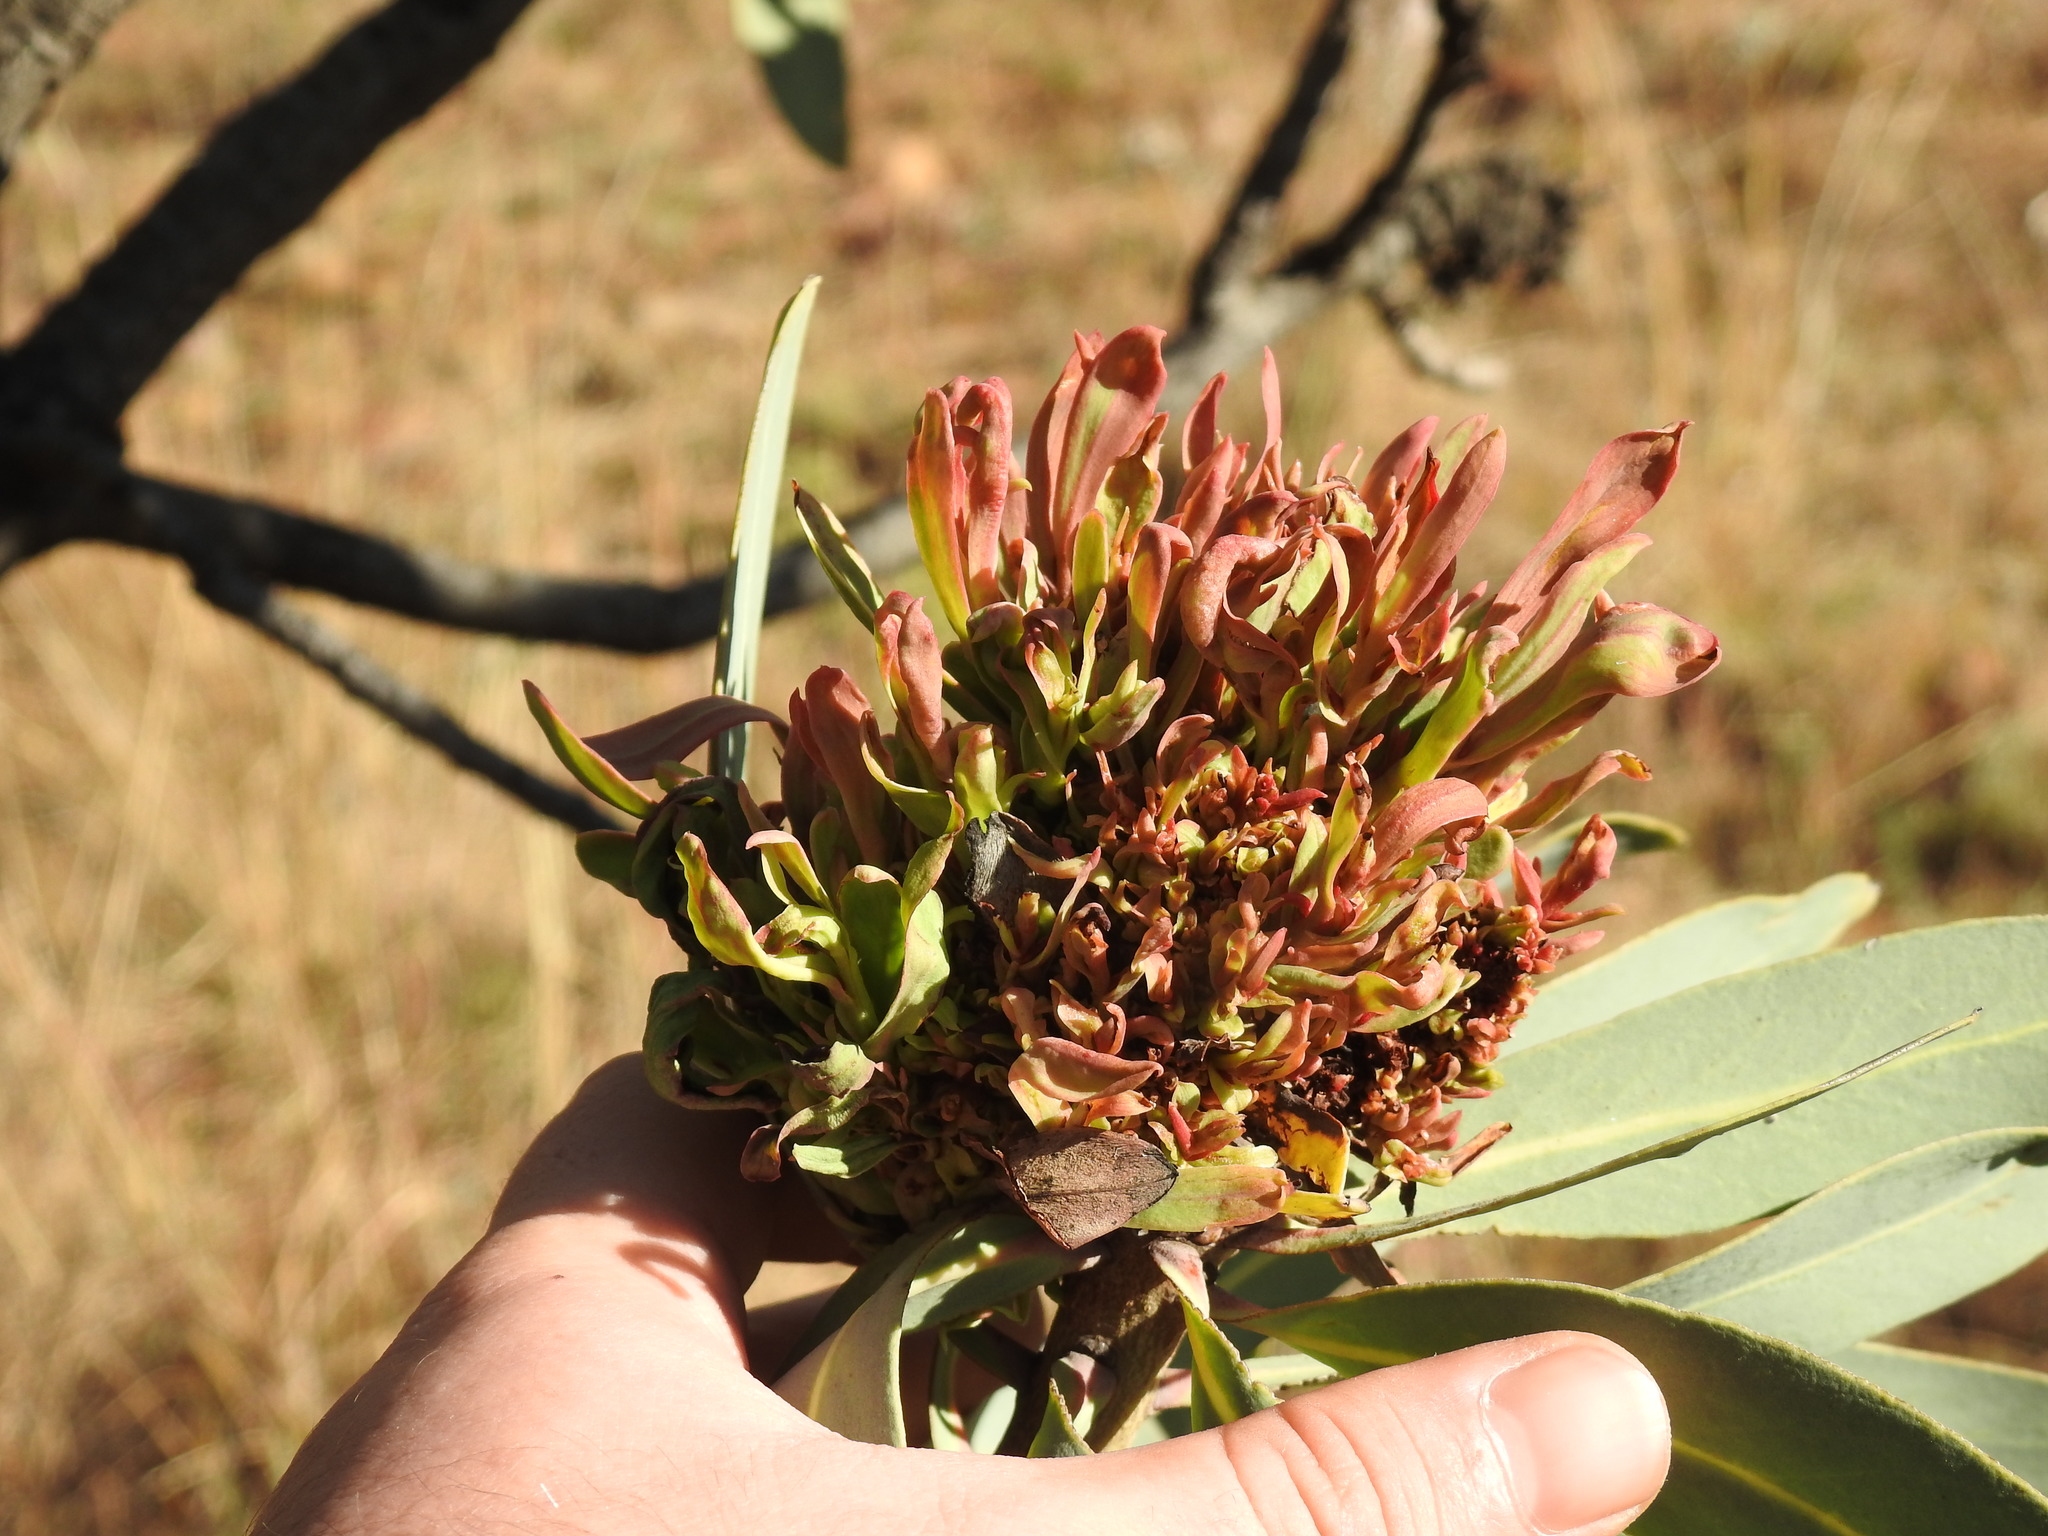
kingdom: Bacteria
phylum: Firmicutes
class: Bacilli
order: Acholeplasmatales
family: Acholeplasmataceae
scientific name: Acholeplasmataceae
